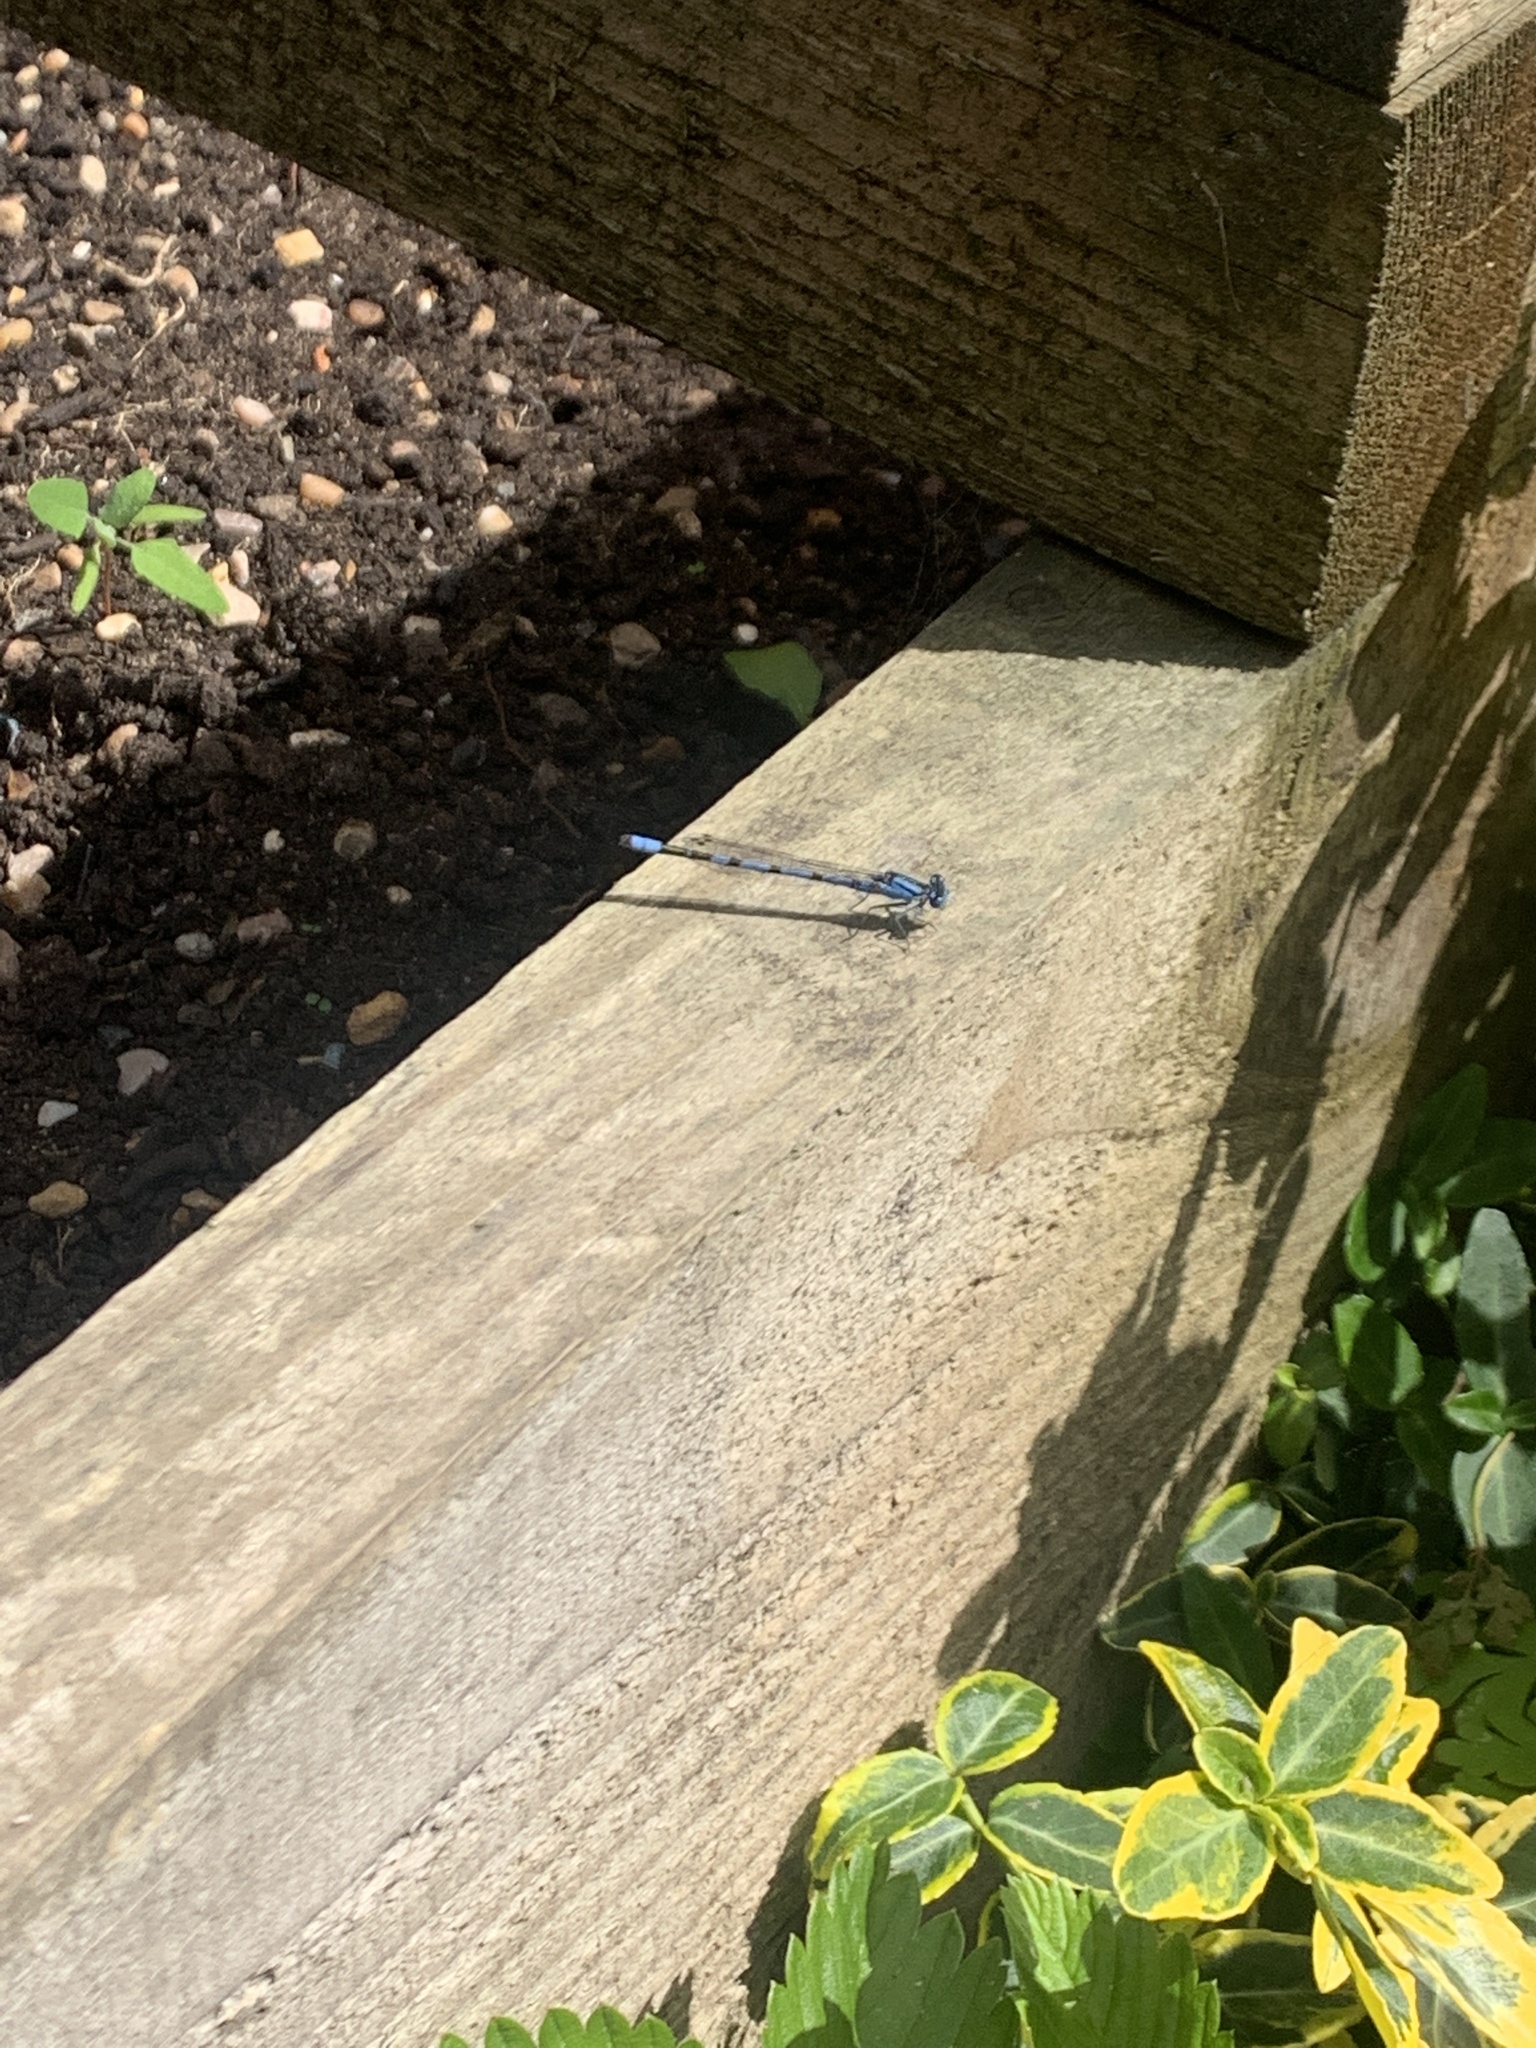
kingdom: Animalia
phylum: Arthropoda
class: Insecta
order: Odonata
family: Coenagrionidae
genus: Enallagma
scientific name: Enallagma cyathigerum
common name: Common blue damselfly
